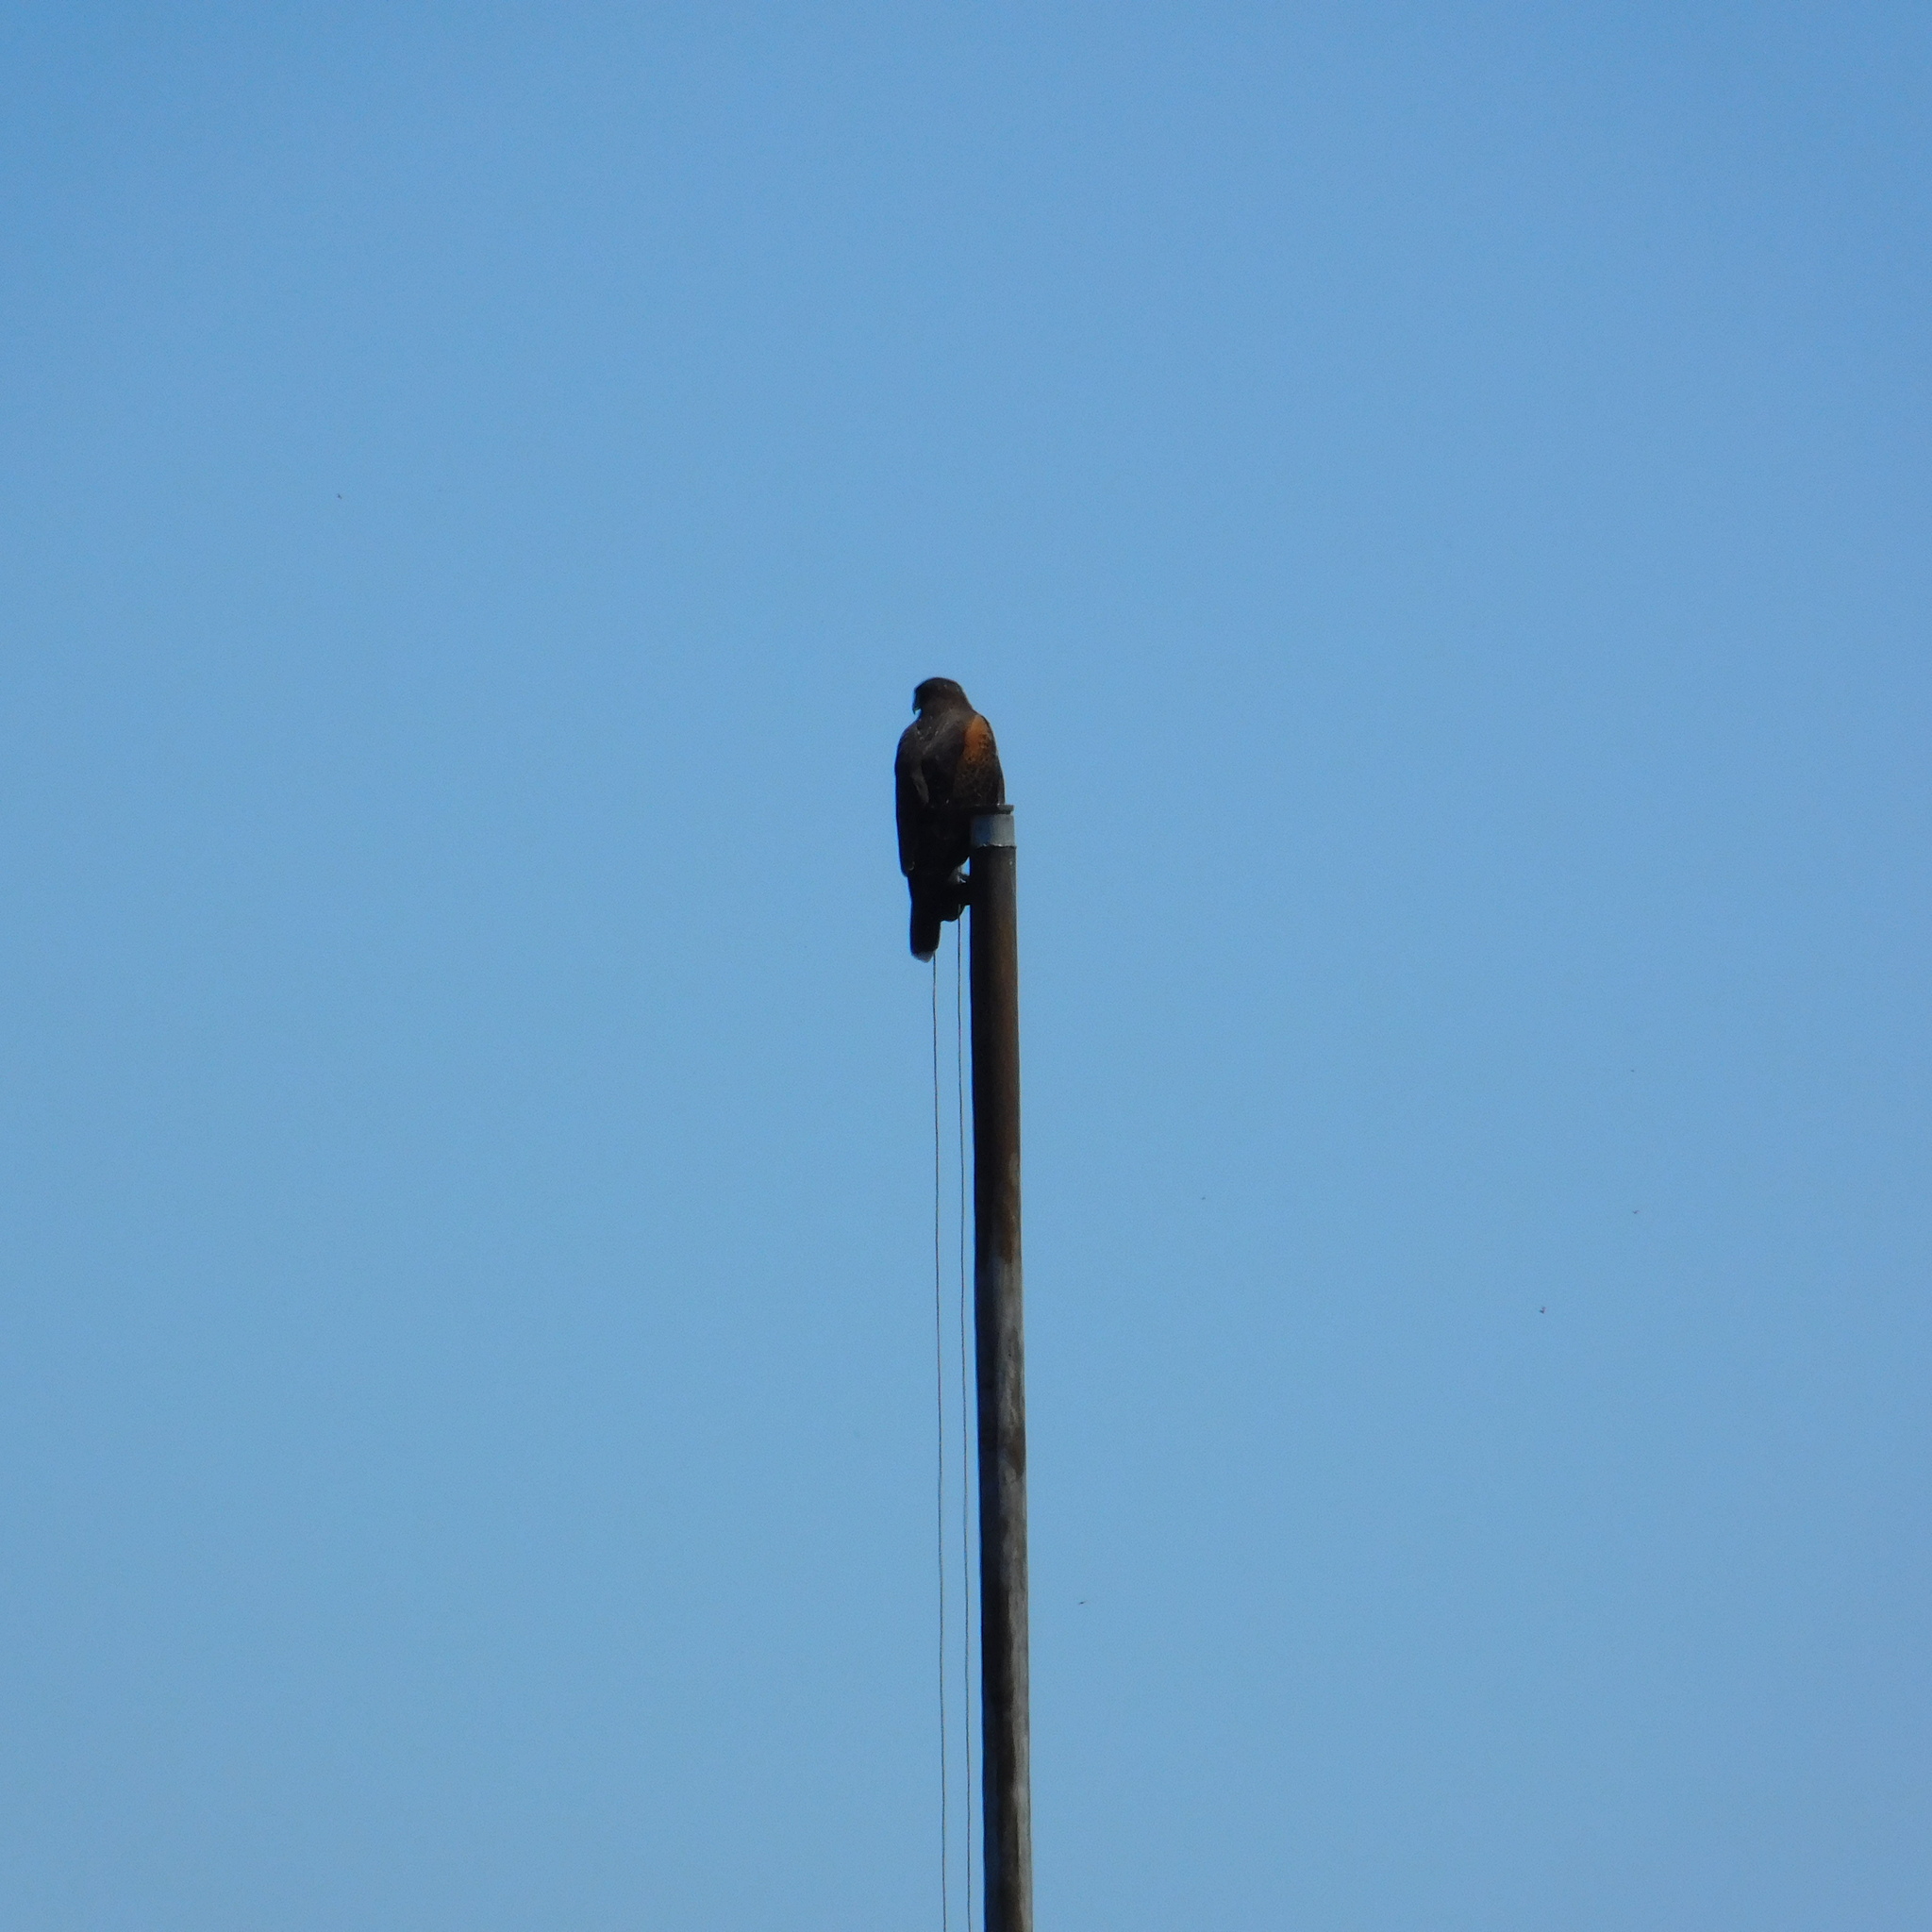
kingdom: Animalia
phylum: Chordata
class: Aves
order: Accipitriformes
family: Accipitridae
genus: Parabuteo
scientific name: Parabuteo unicinctus
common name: Harris's hawk
